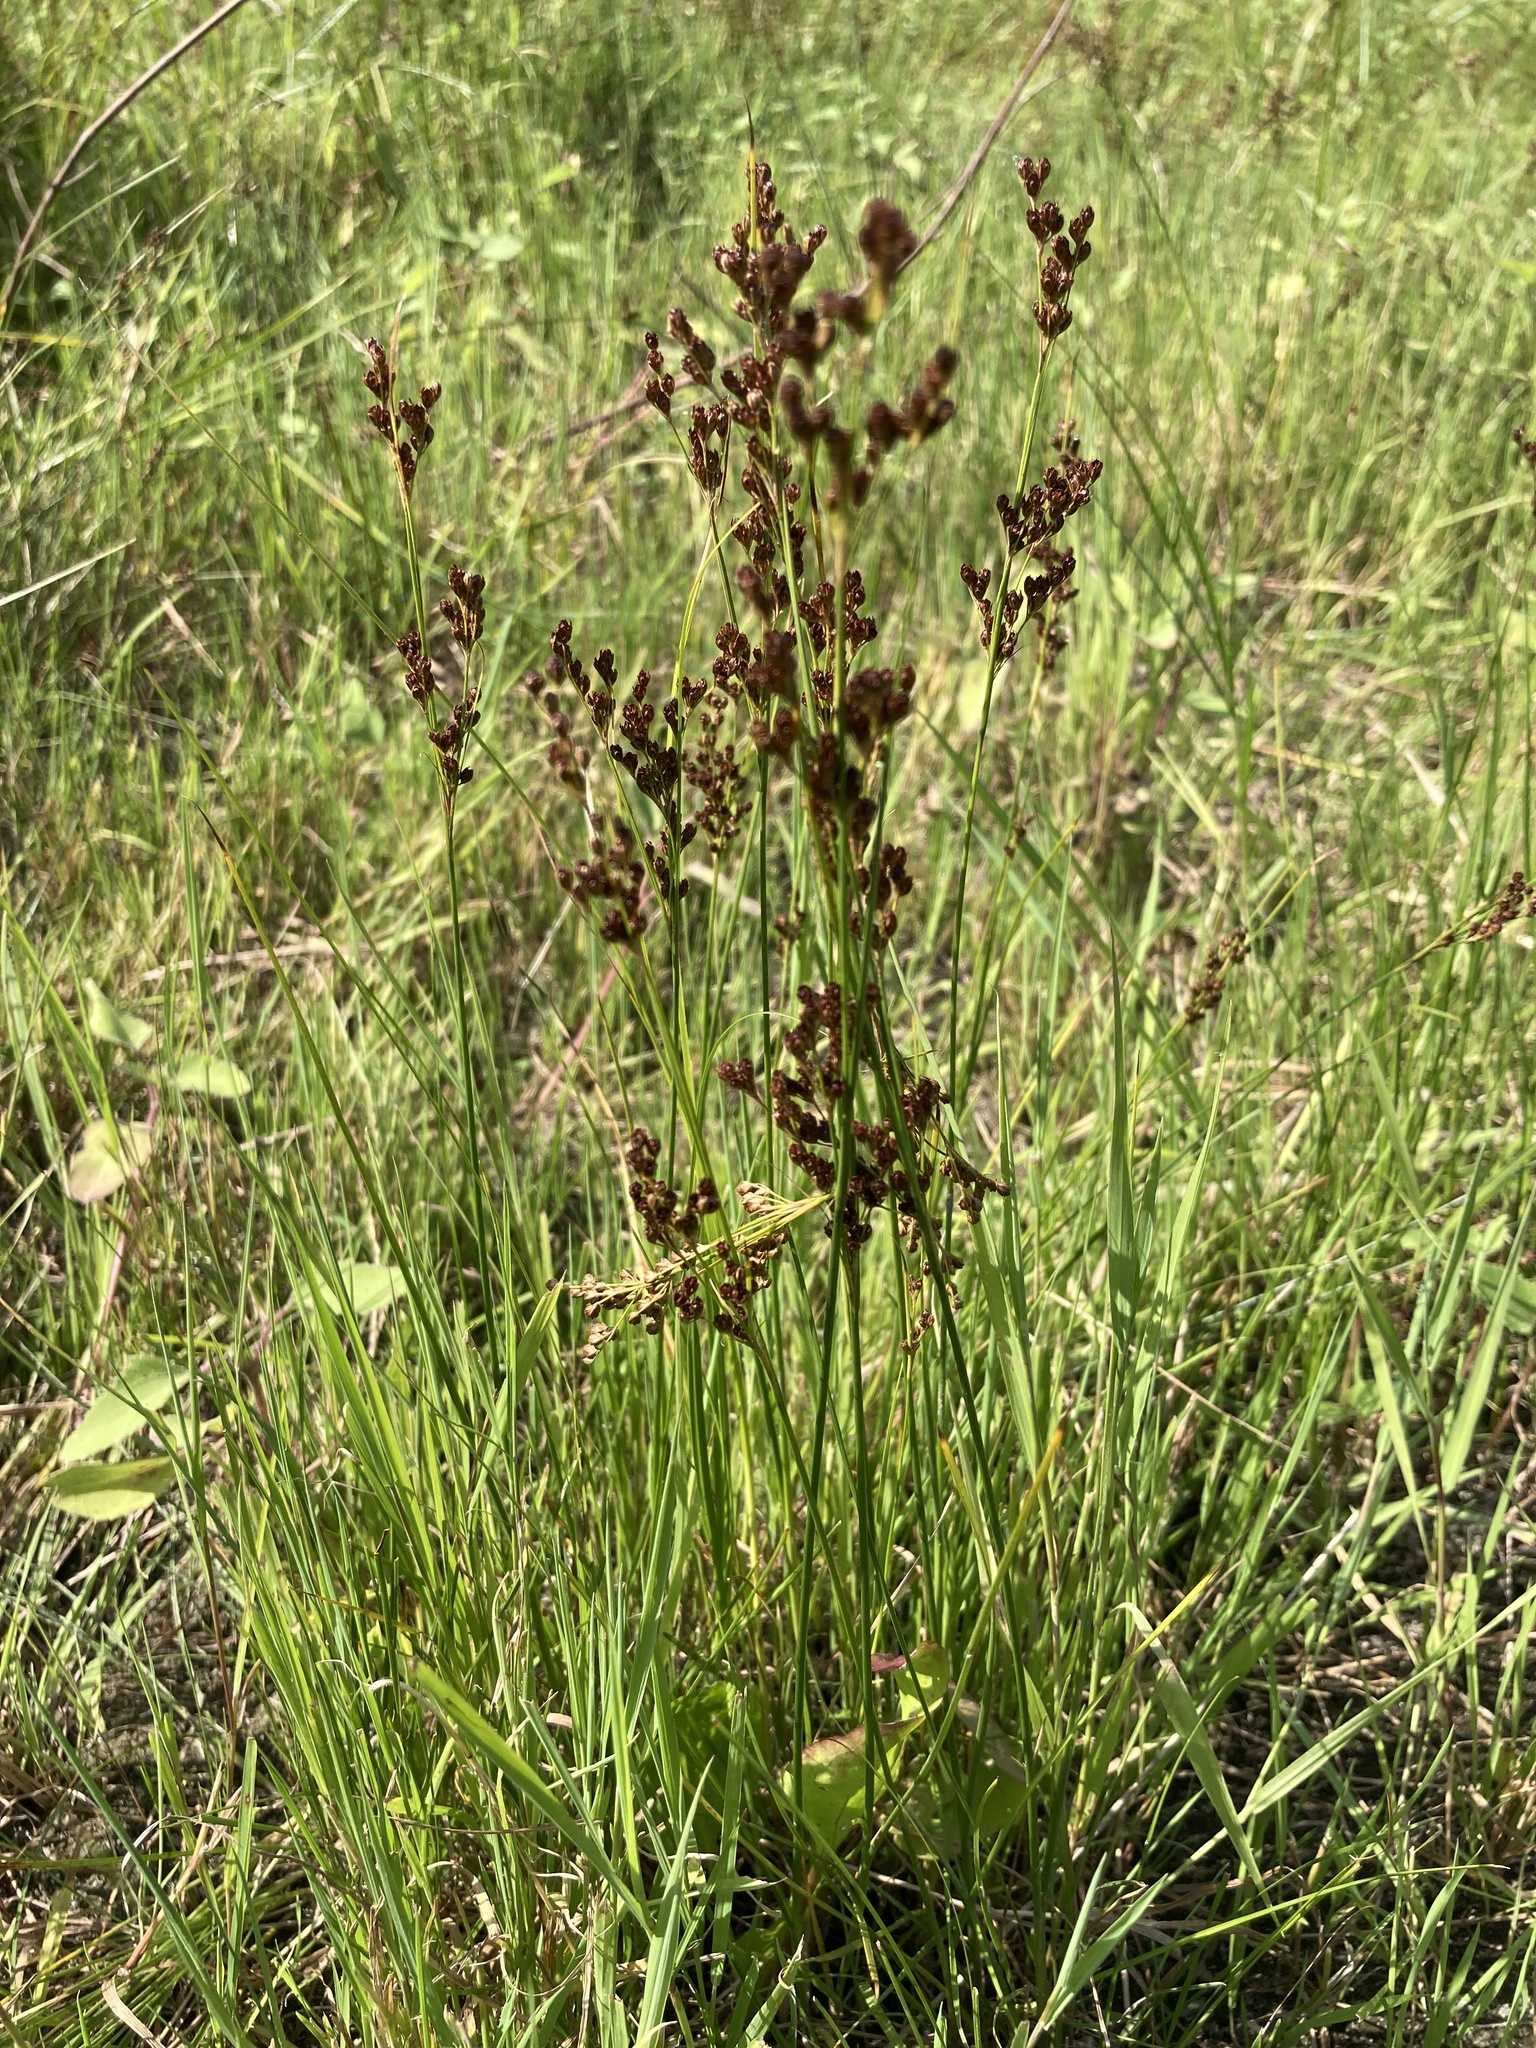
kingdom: Plantae
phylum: Tracheophyta
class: Liliopsida
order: Poales
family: Juncaceae
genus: Juncus
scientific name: Juncus compressus
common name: Round-fruited rush
